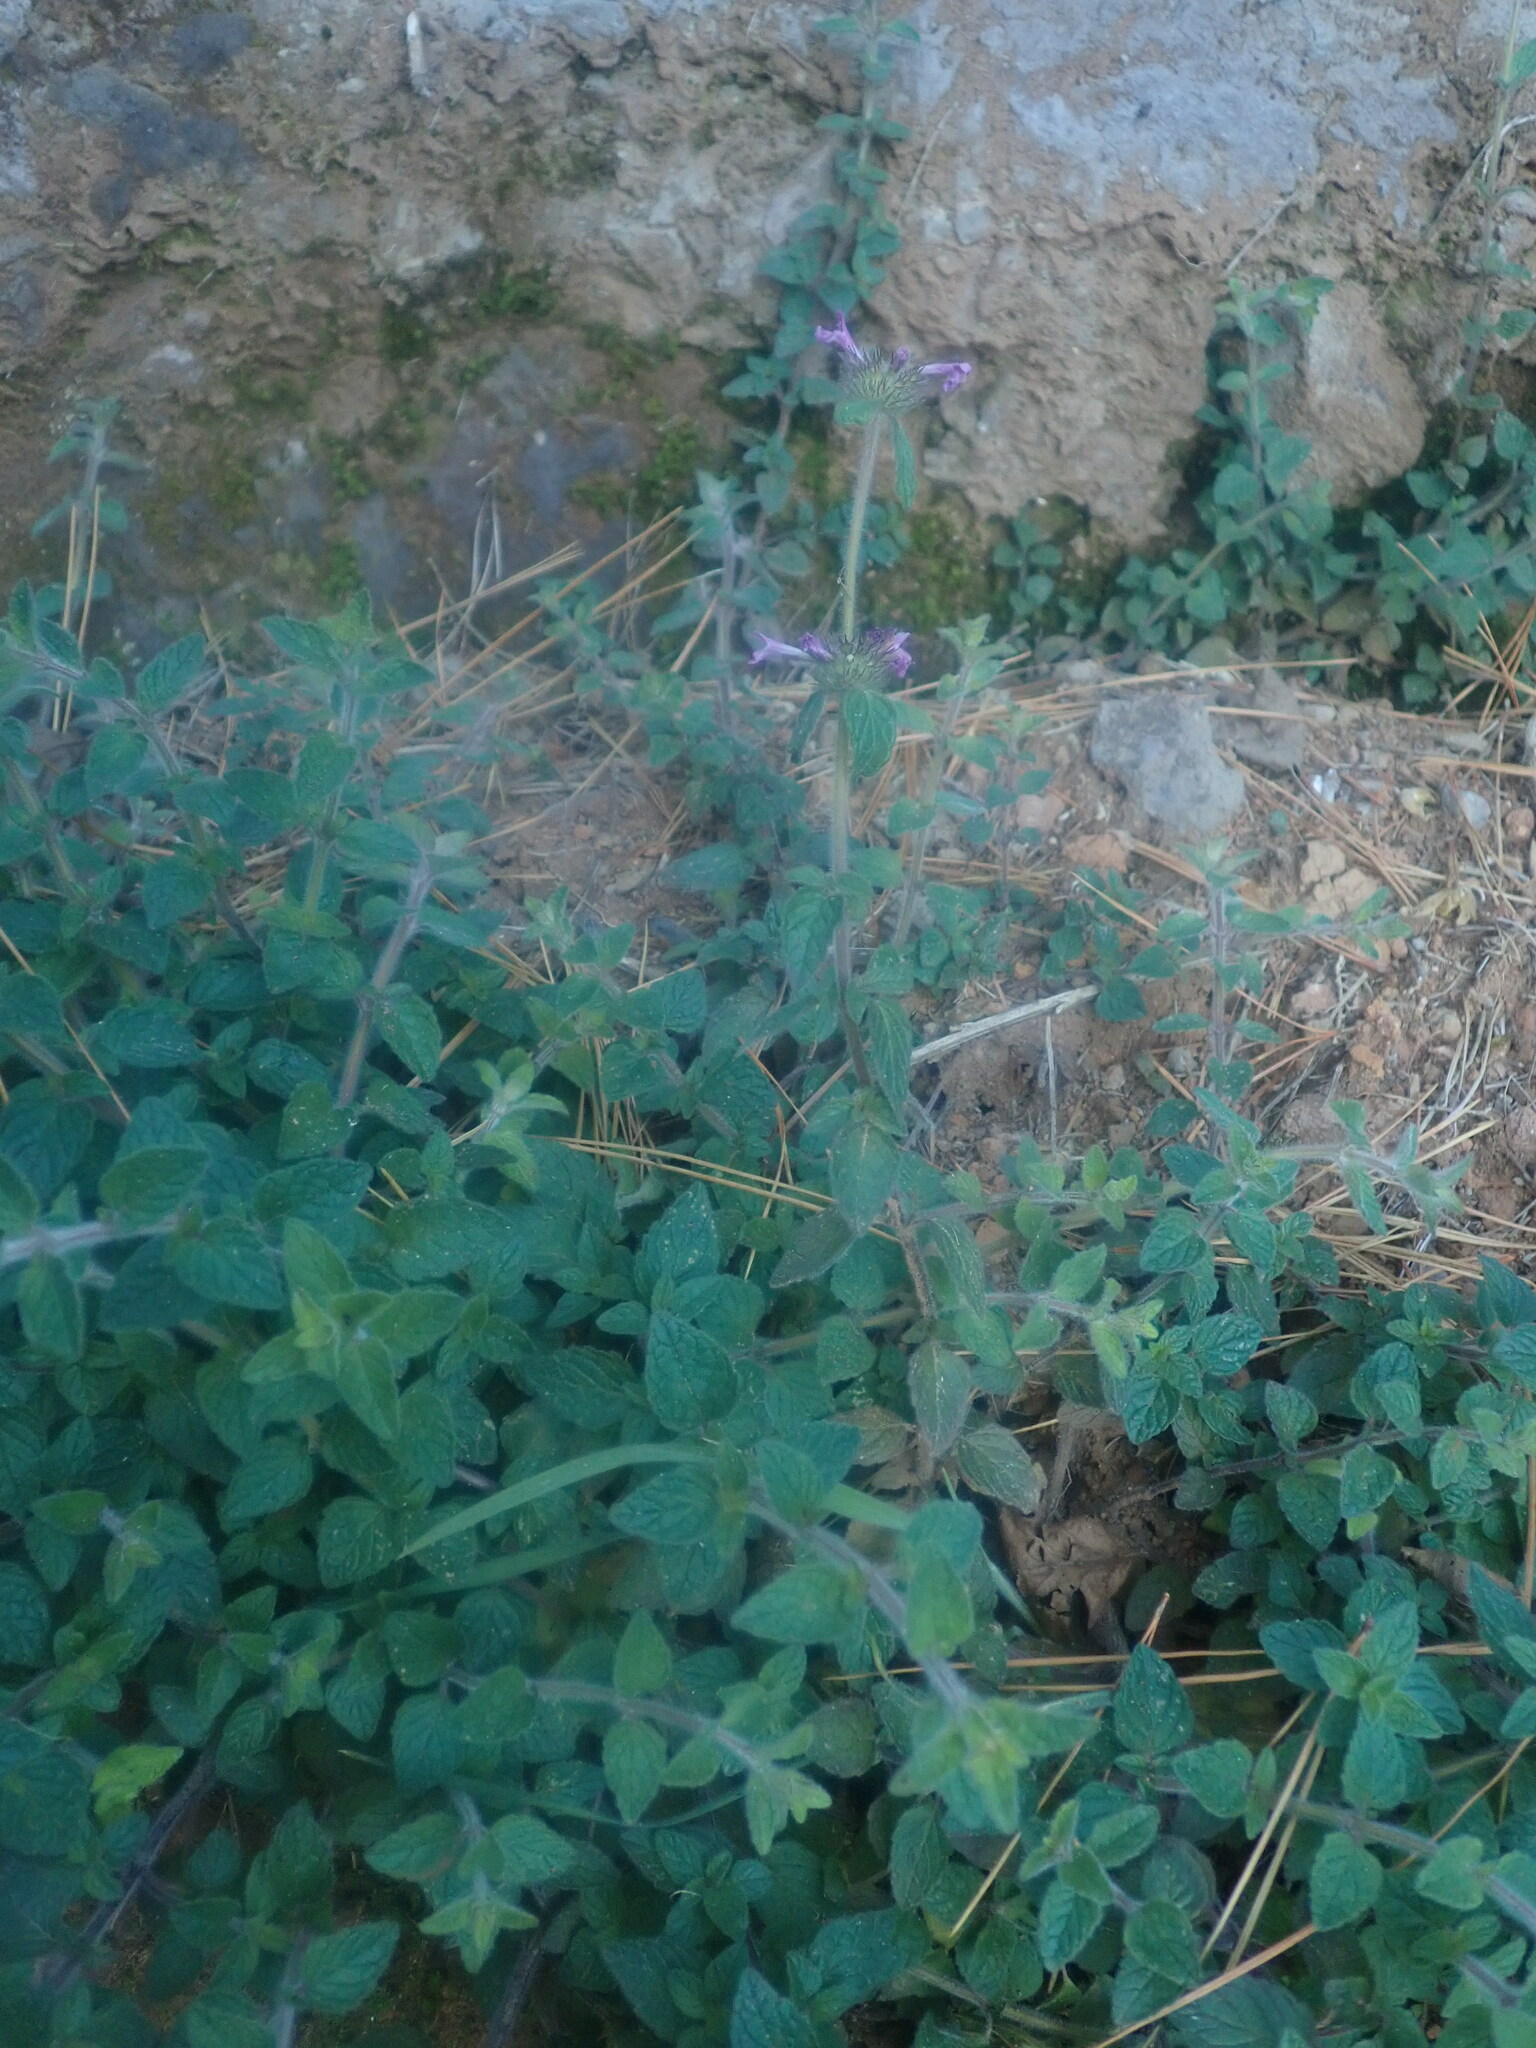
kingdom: Plantae
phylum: Tracheophyta
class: Magnoliopsida
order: Lamiales
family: Lamiaceae
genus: Clinopodium
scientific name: Clinopodium vulgare
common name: Wild basil
